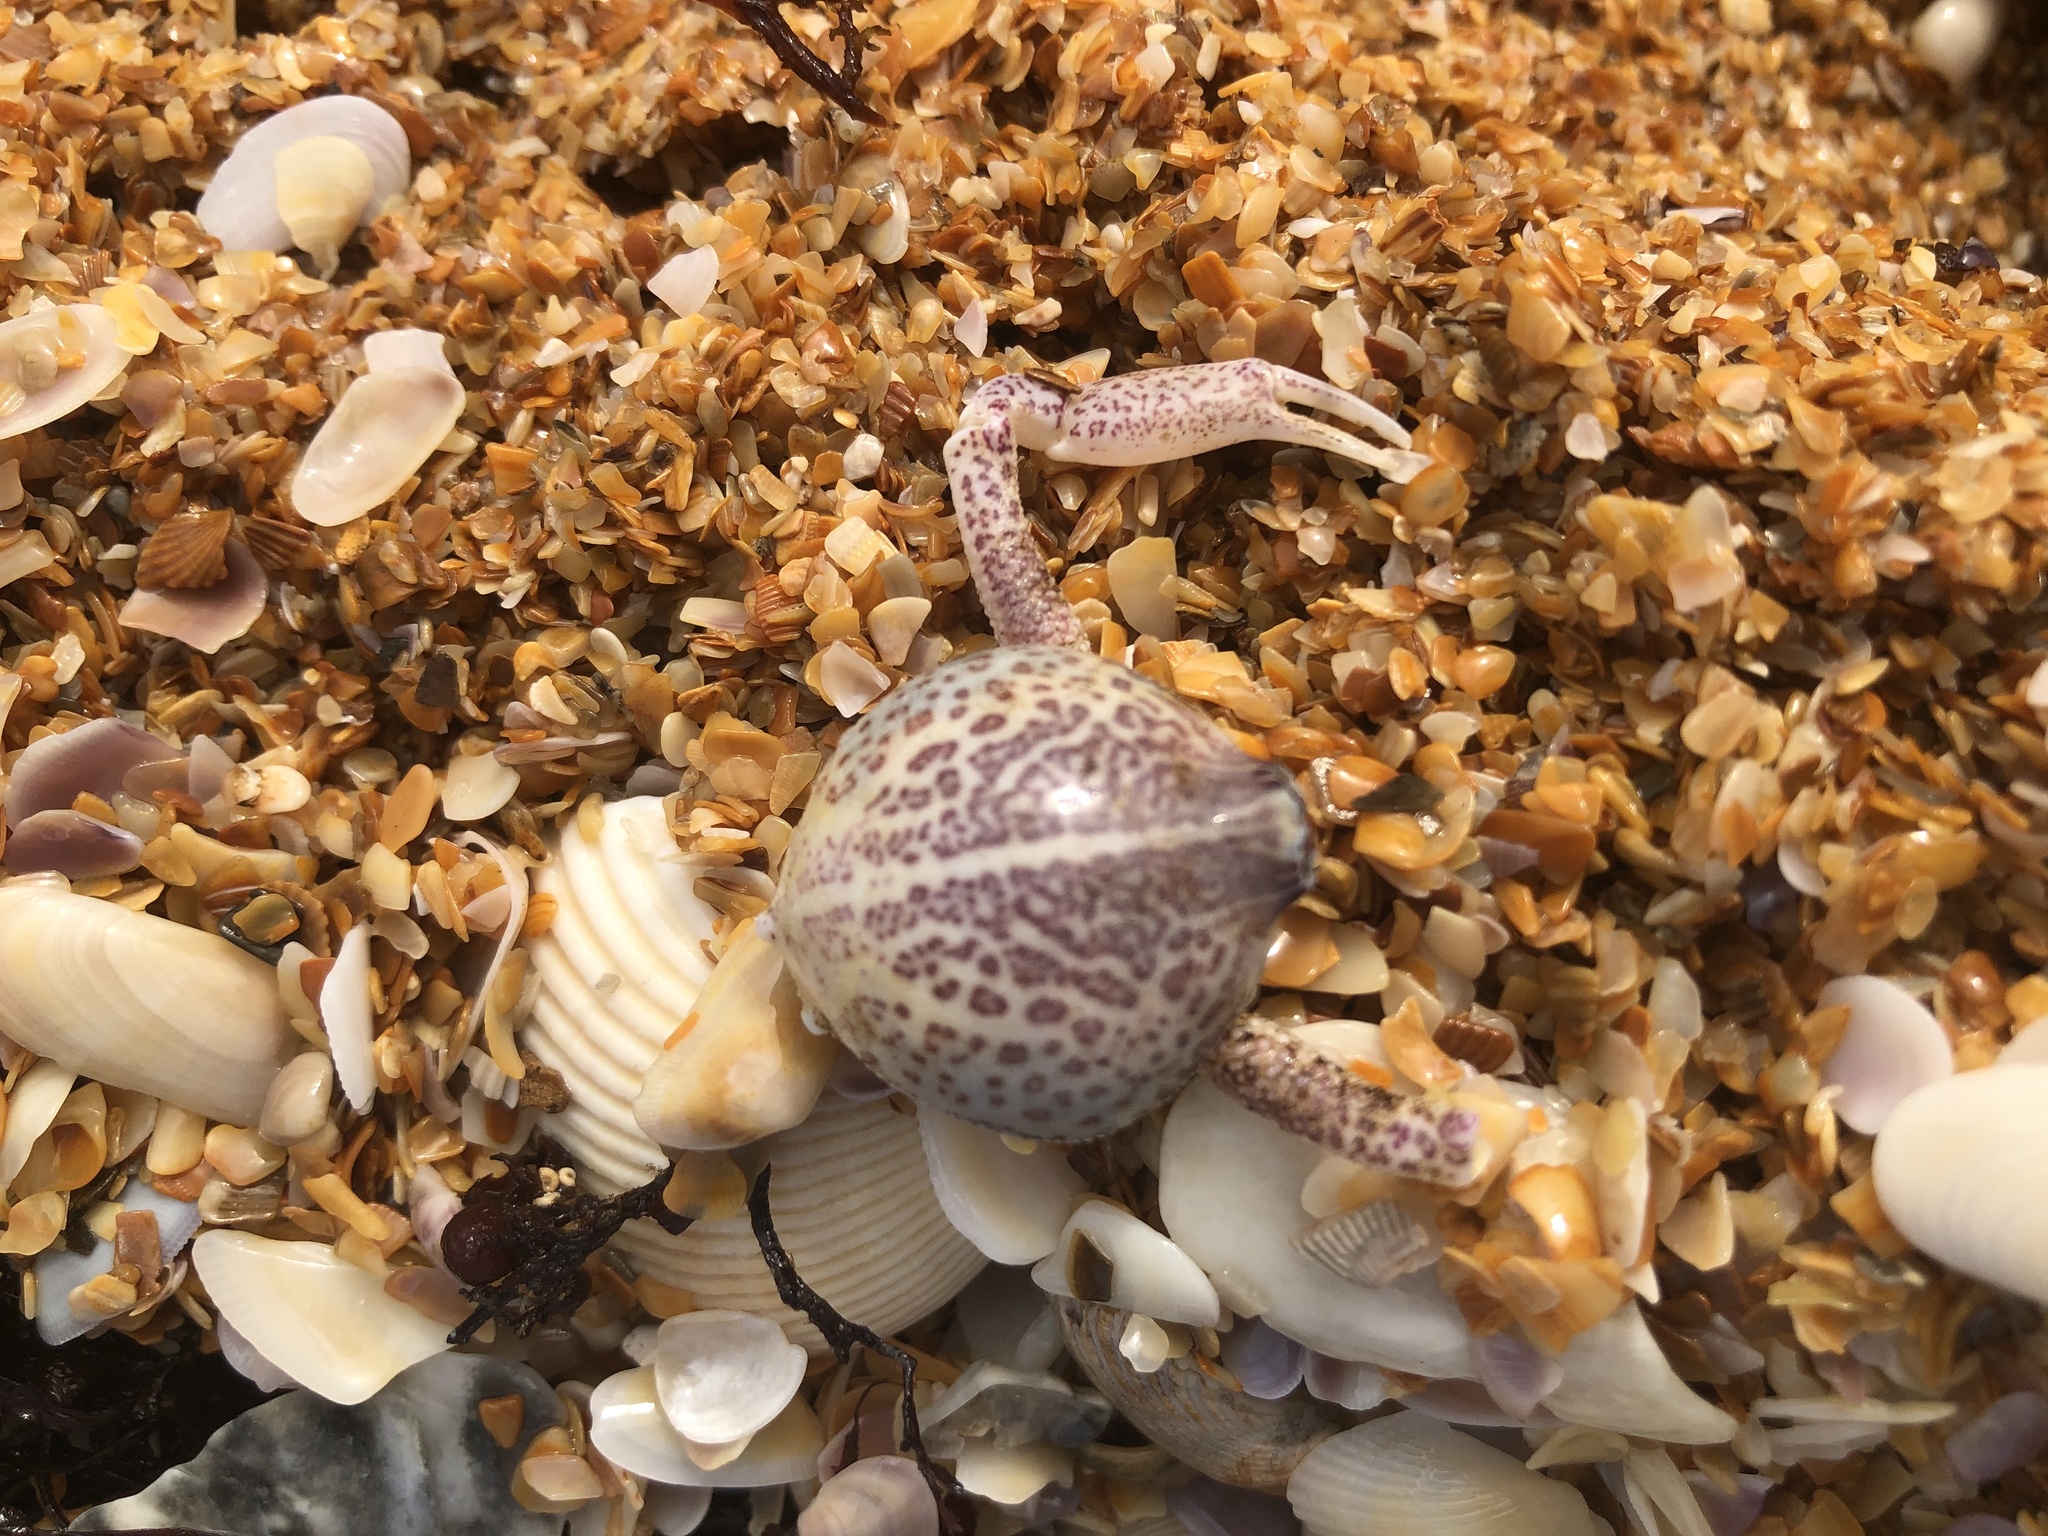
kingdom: Animalia
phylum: Arthropoda
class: Malacostraca
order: Decapoda
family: Leucosiidae
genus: Persephona
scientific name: Persephona aquilonaris
